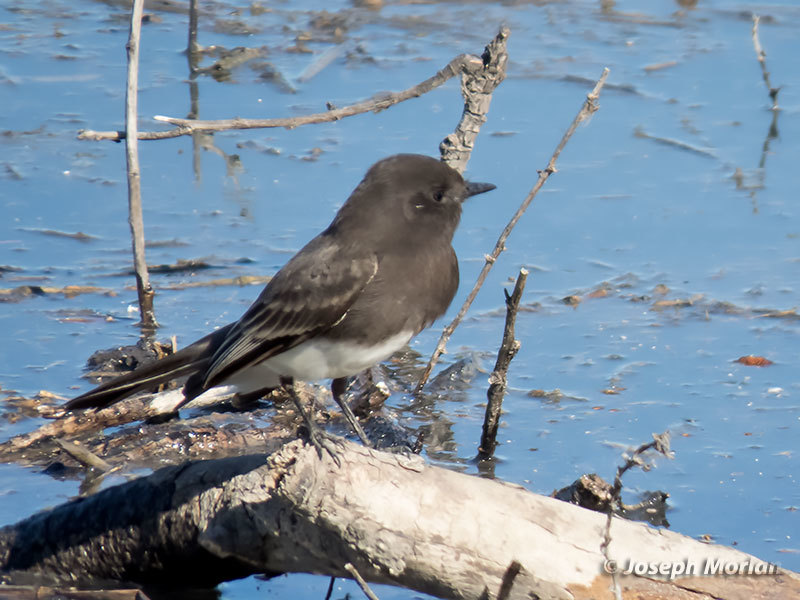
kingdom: Animalia
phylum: Chordata
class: Aves
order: Passeriformes
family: Tyrannidae
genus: Sayornis
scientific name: Sayornis nigricans
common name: Black phoebe
